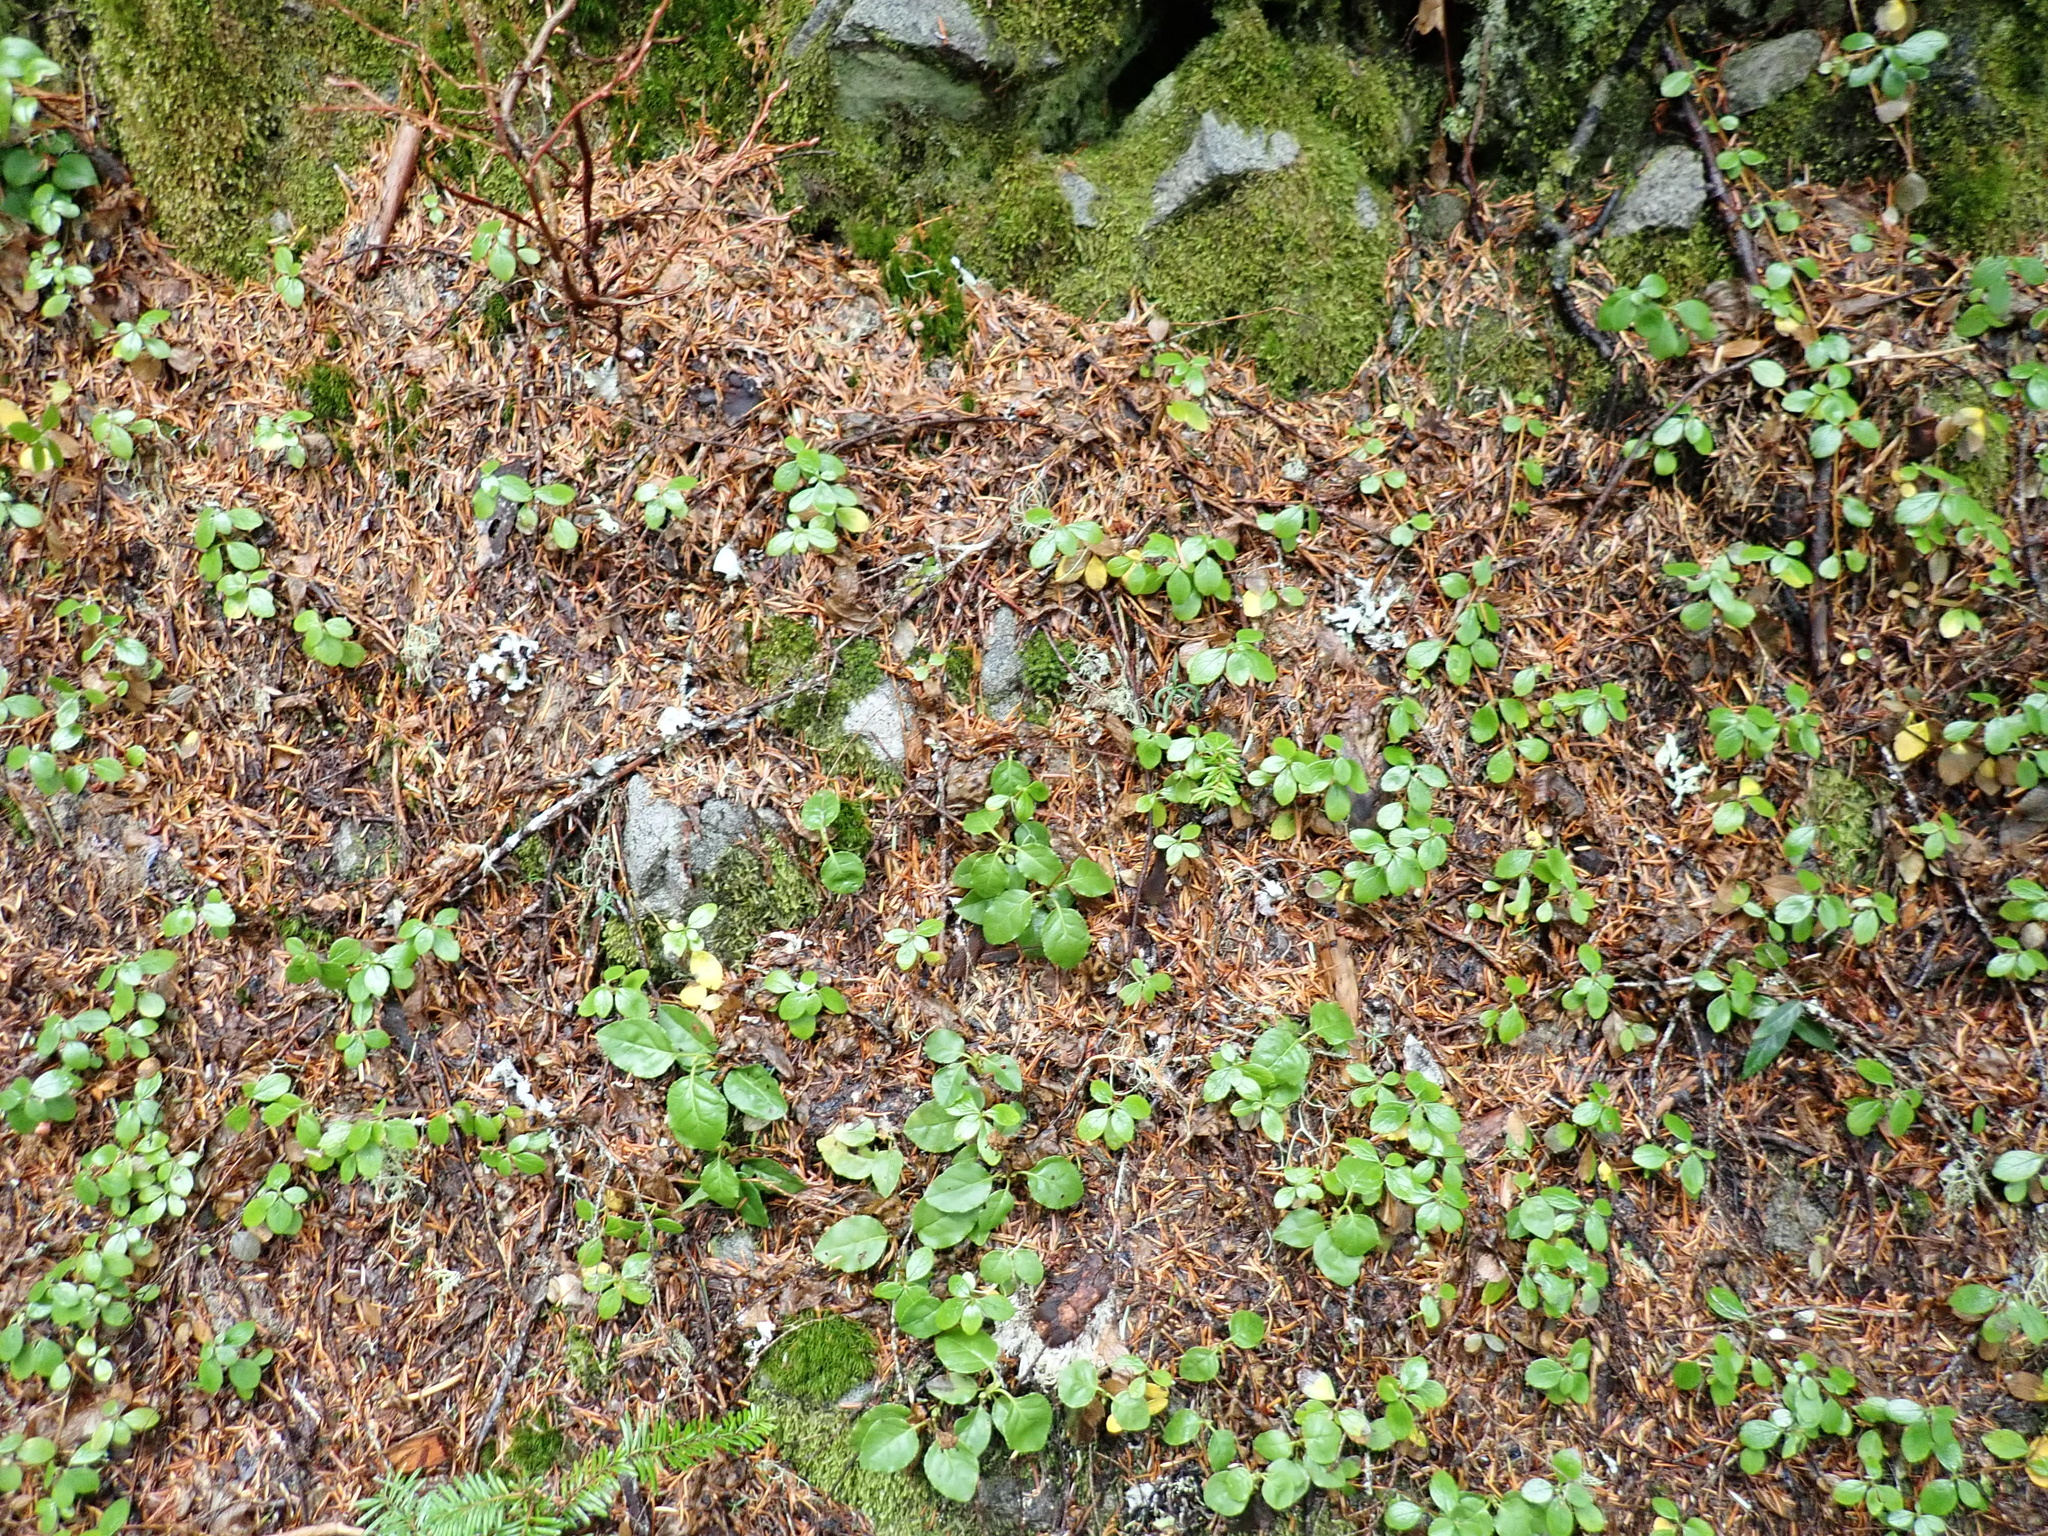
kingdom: Plantae
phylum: Tracheophyta
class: Magnoliopsida
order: Ericales
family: Ericaceae
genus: Orthilia
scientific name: Orthilia secunda
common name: One-sided orthilia
